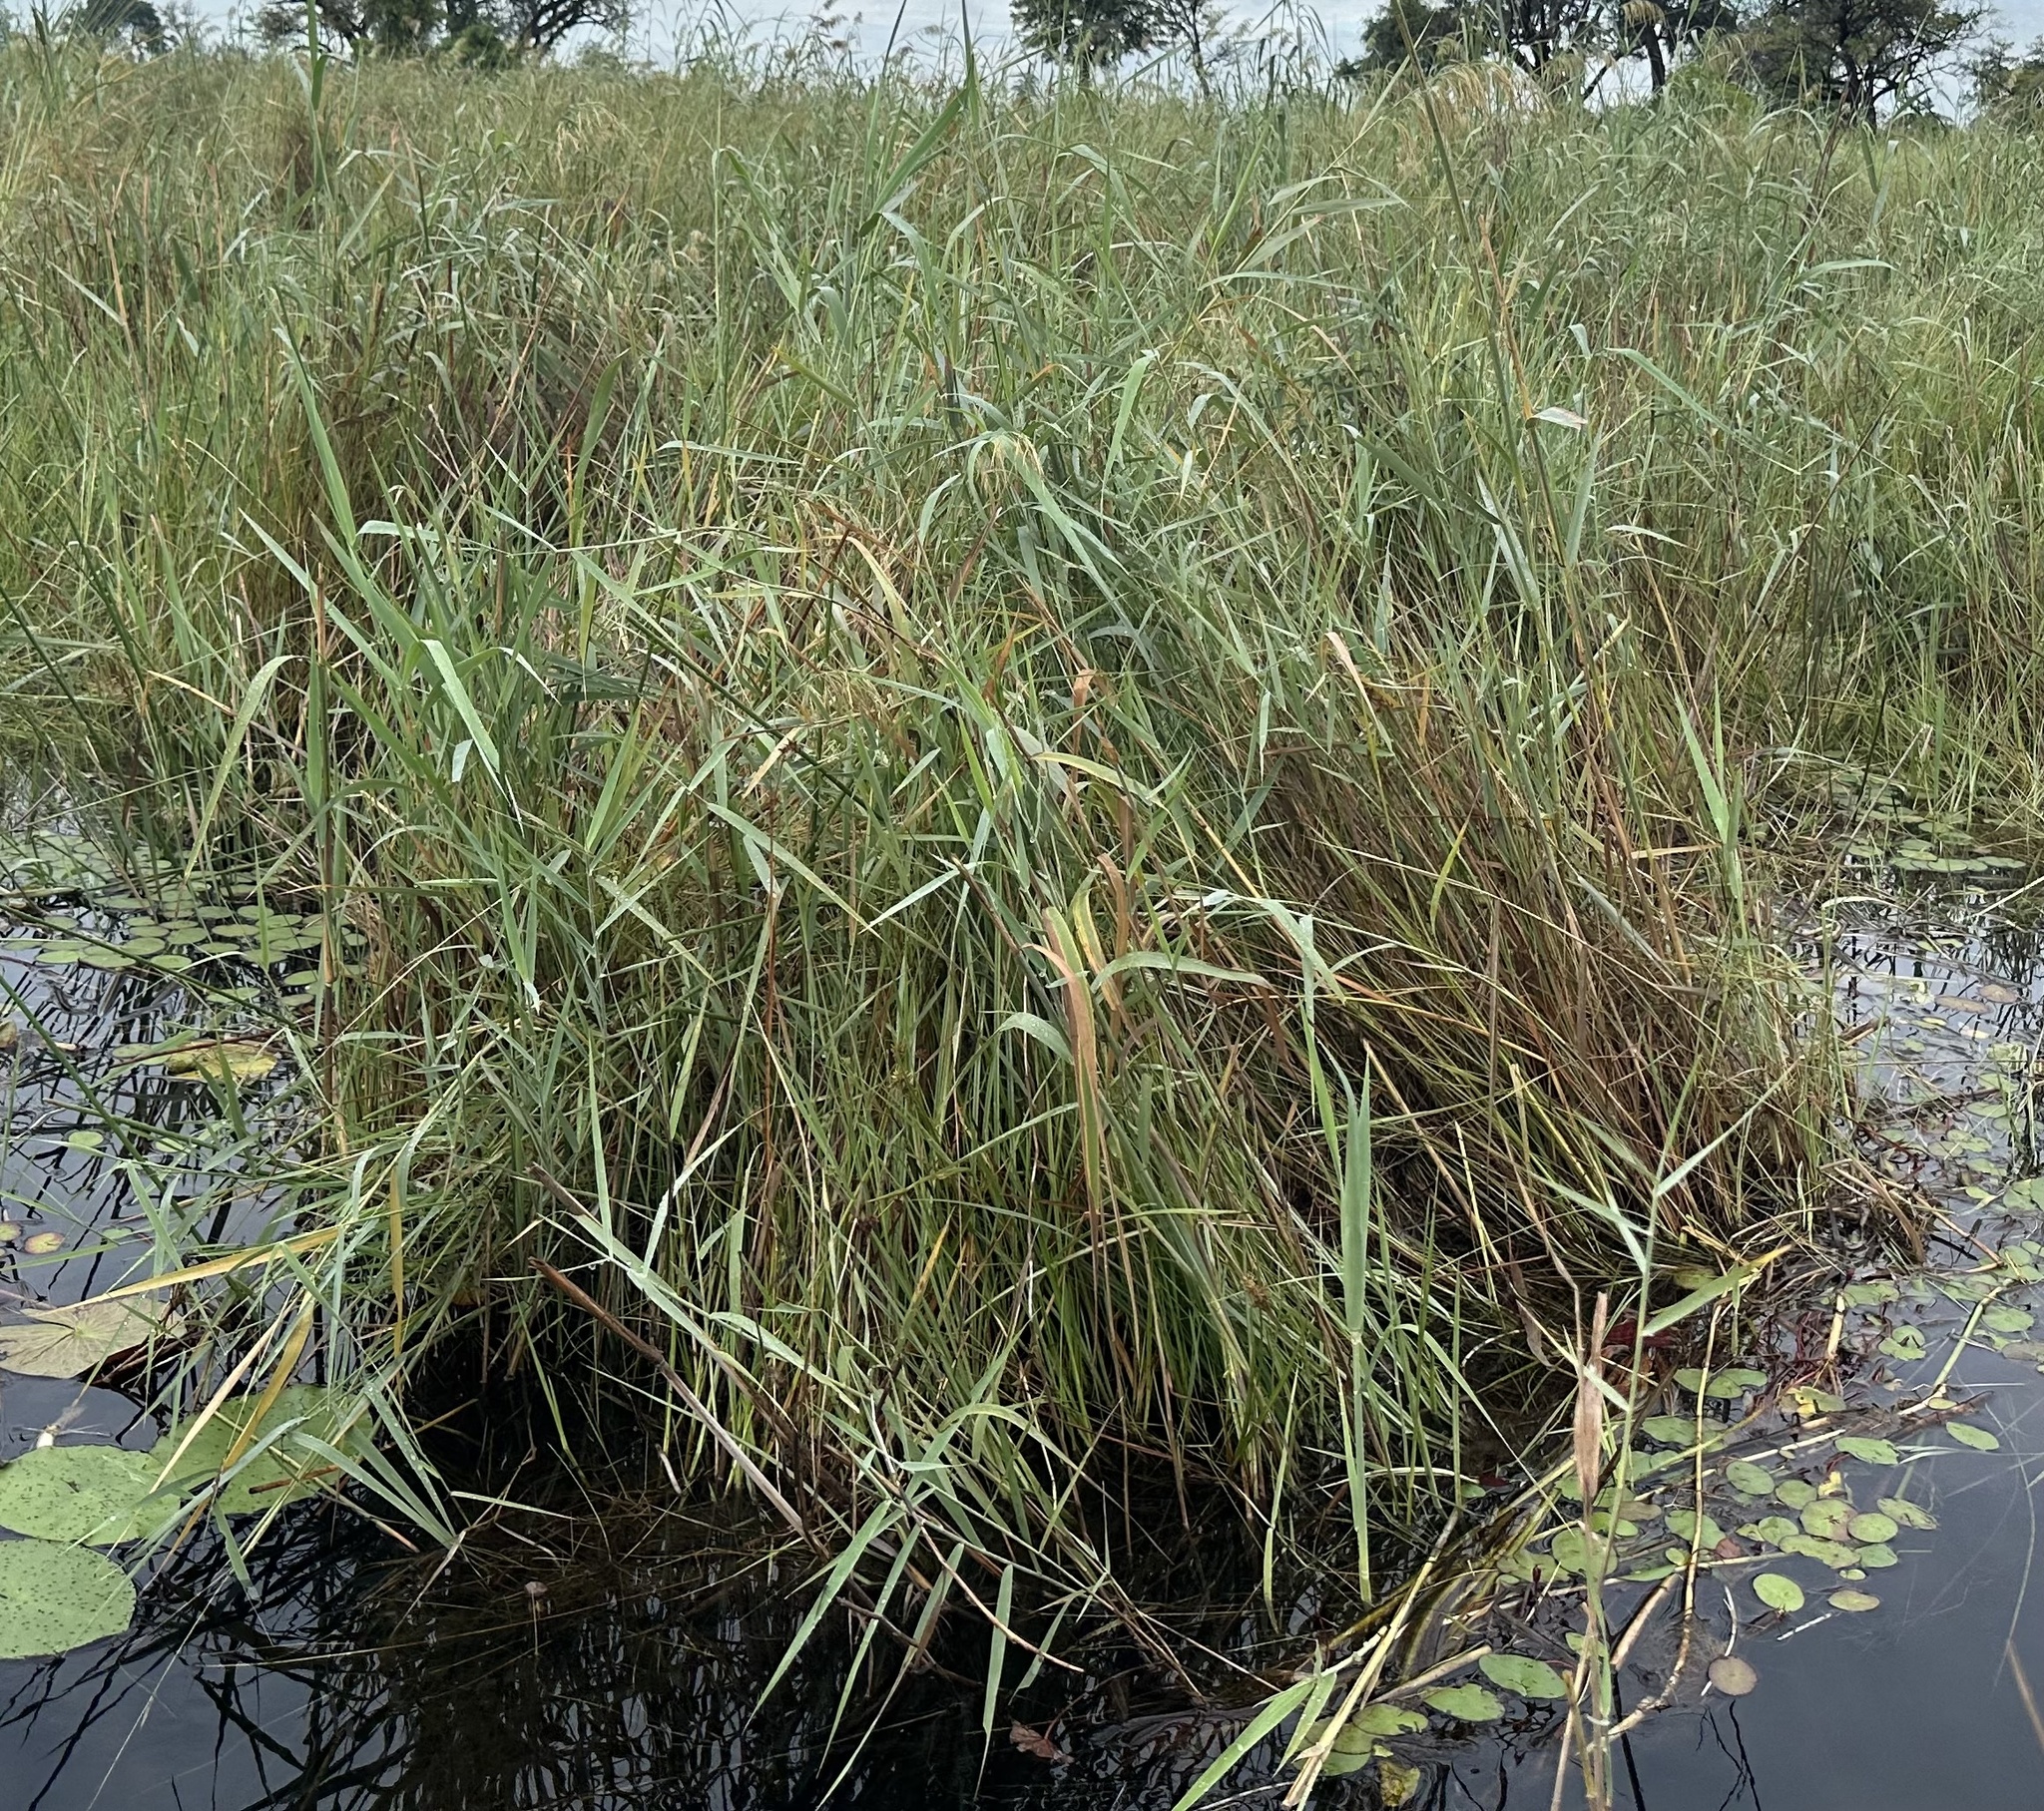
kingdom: Plantae
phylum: Tracheophyta
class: Liliopsida
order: Poales
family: Poaceae
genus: Phragmites
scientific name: Phragmites australis
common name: Common reed
